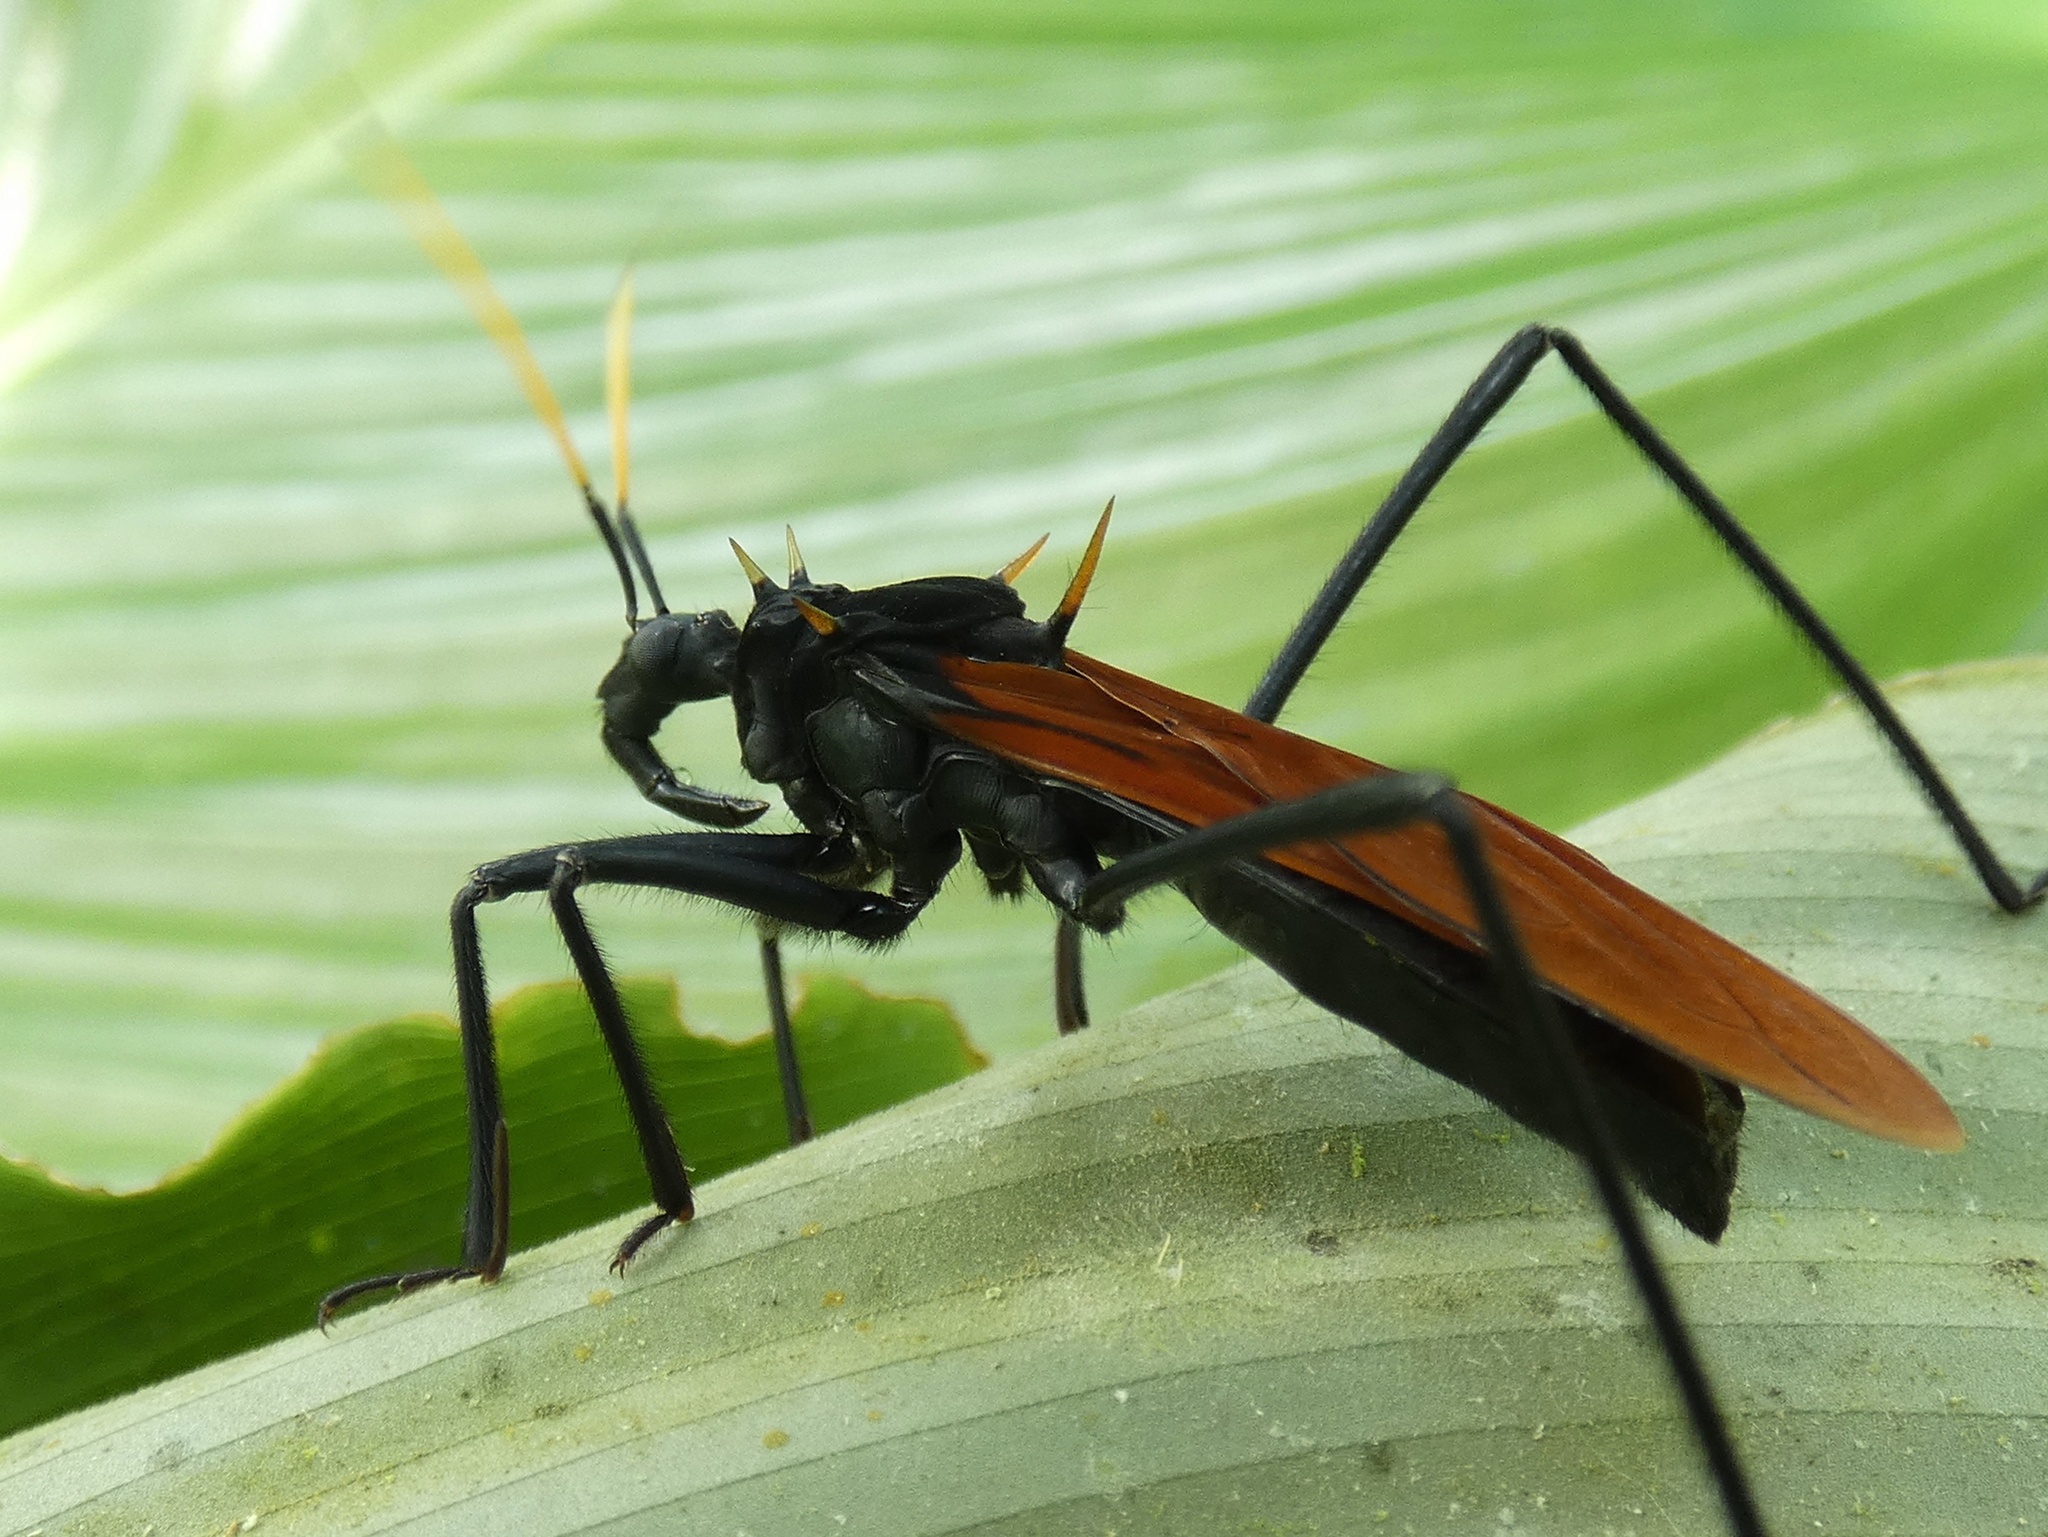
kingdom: Animalia
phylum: Arthropoda
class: Insecta
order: Hemiptera
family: Reduviidae
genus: Zelurus
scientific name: Zelurus spinidorsis
